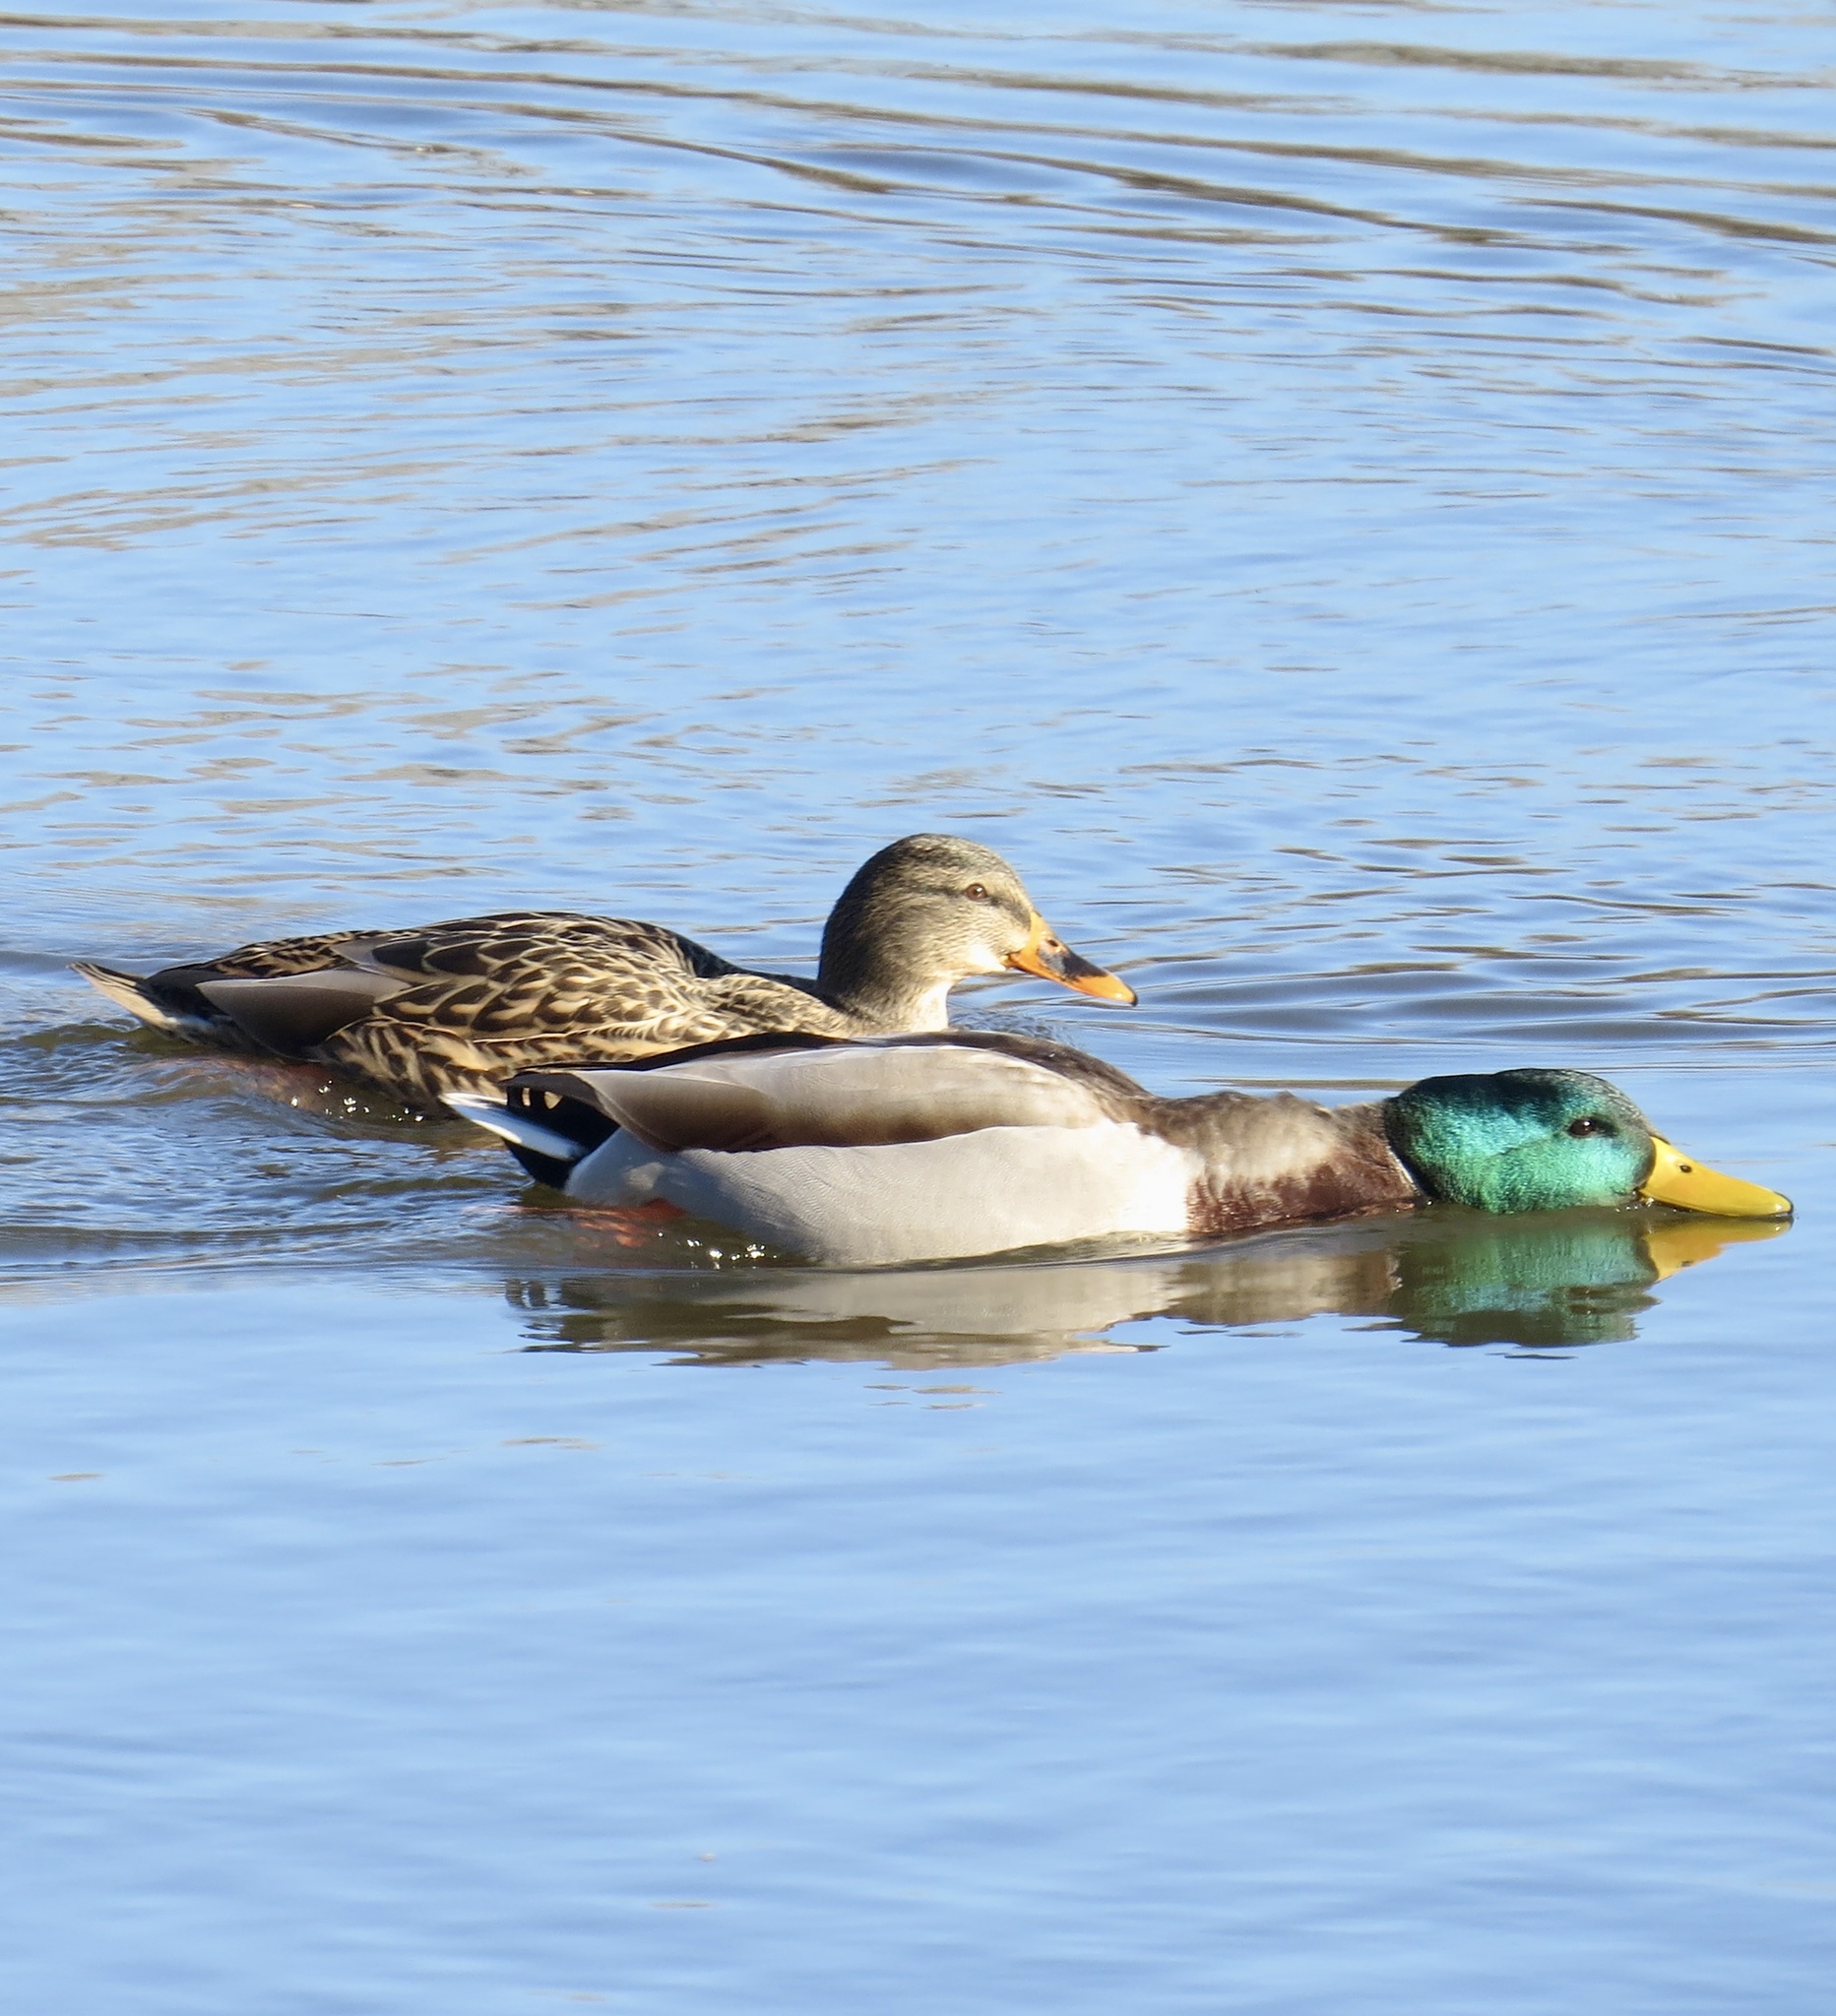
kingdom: Animalia
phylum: Chordata
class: Aves
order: Anseriformes
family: Anatidae
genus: Anas
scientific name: Anas platyrhynchos
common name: Mallard
